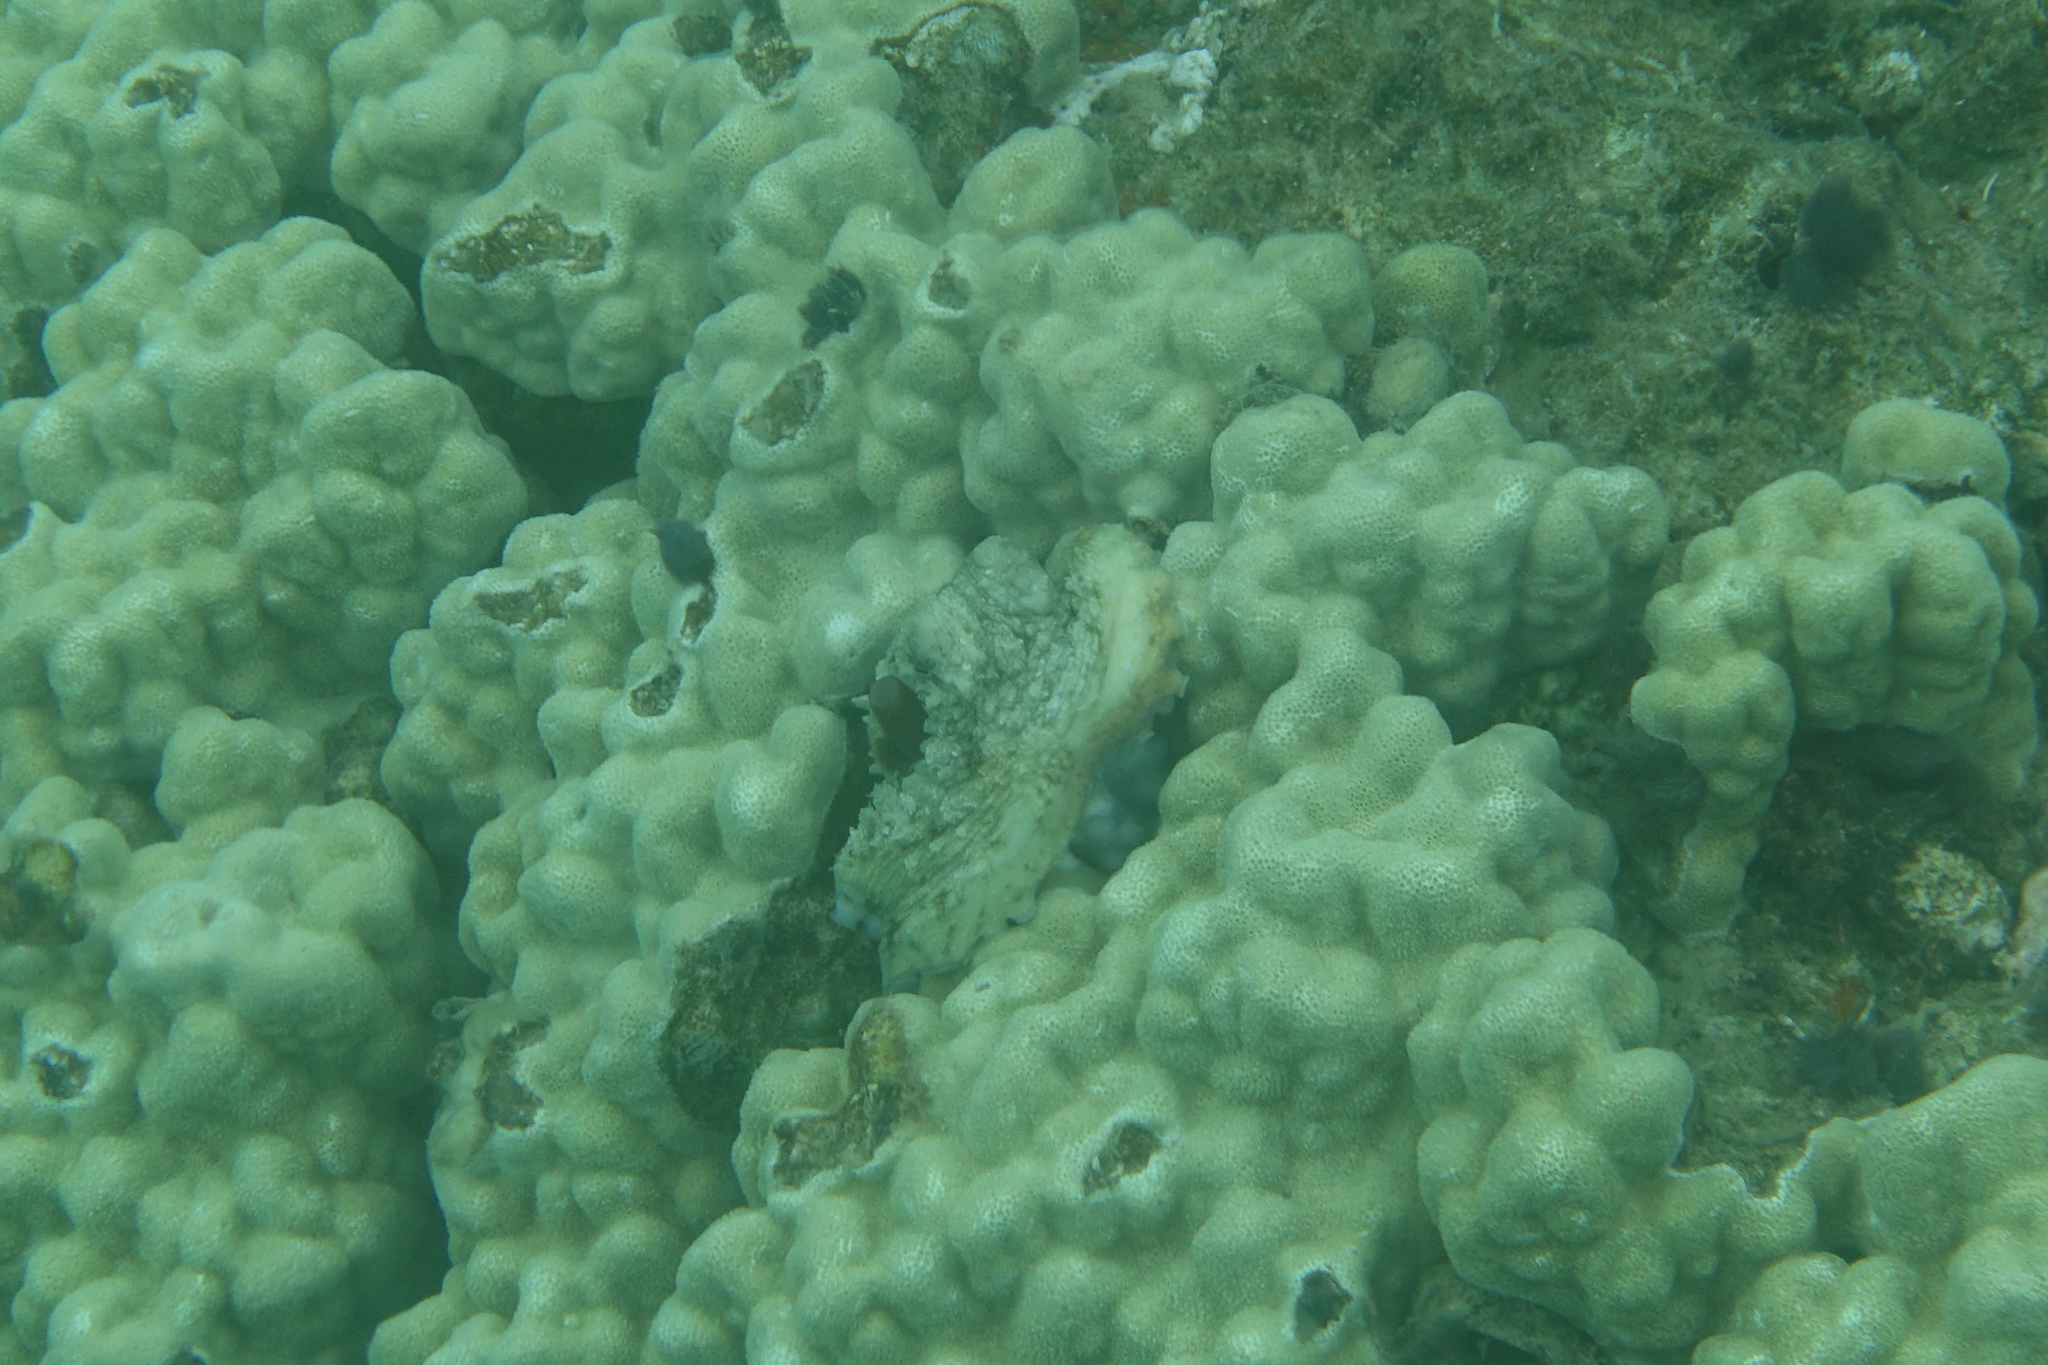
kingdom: Animalia
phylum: Mollusca
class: Cephalopoda
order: Octopoda
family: Octopodidae
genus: Octopus
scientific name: Octopus cyanea
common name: Cyane's octopus
